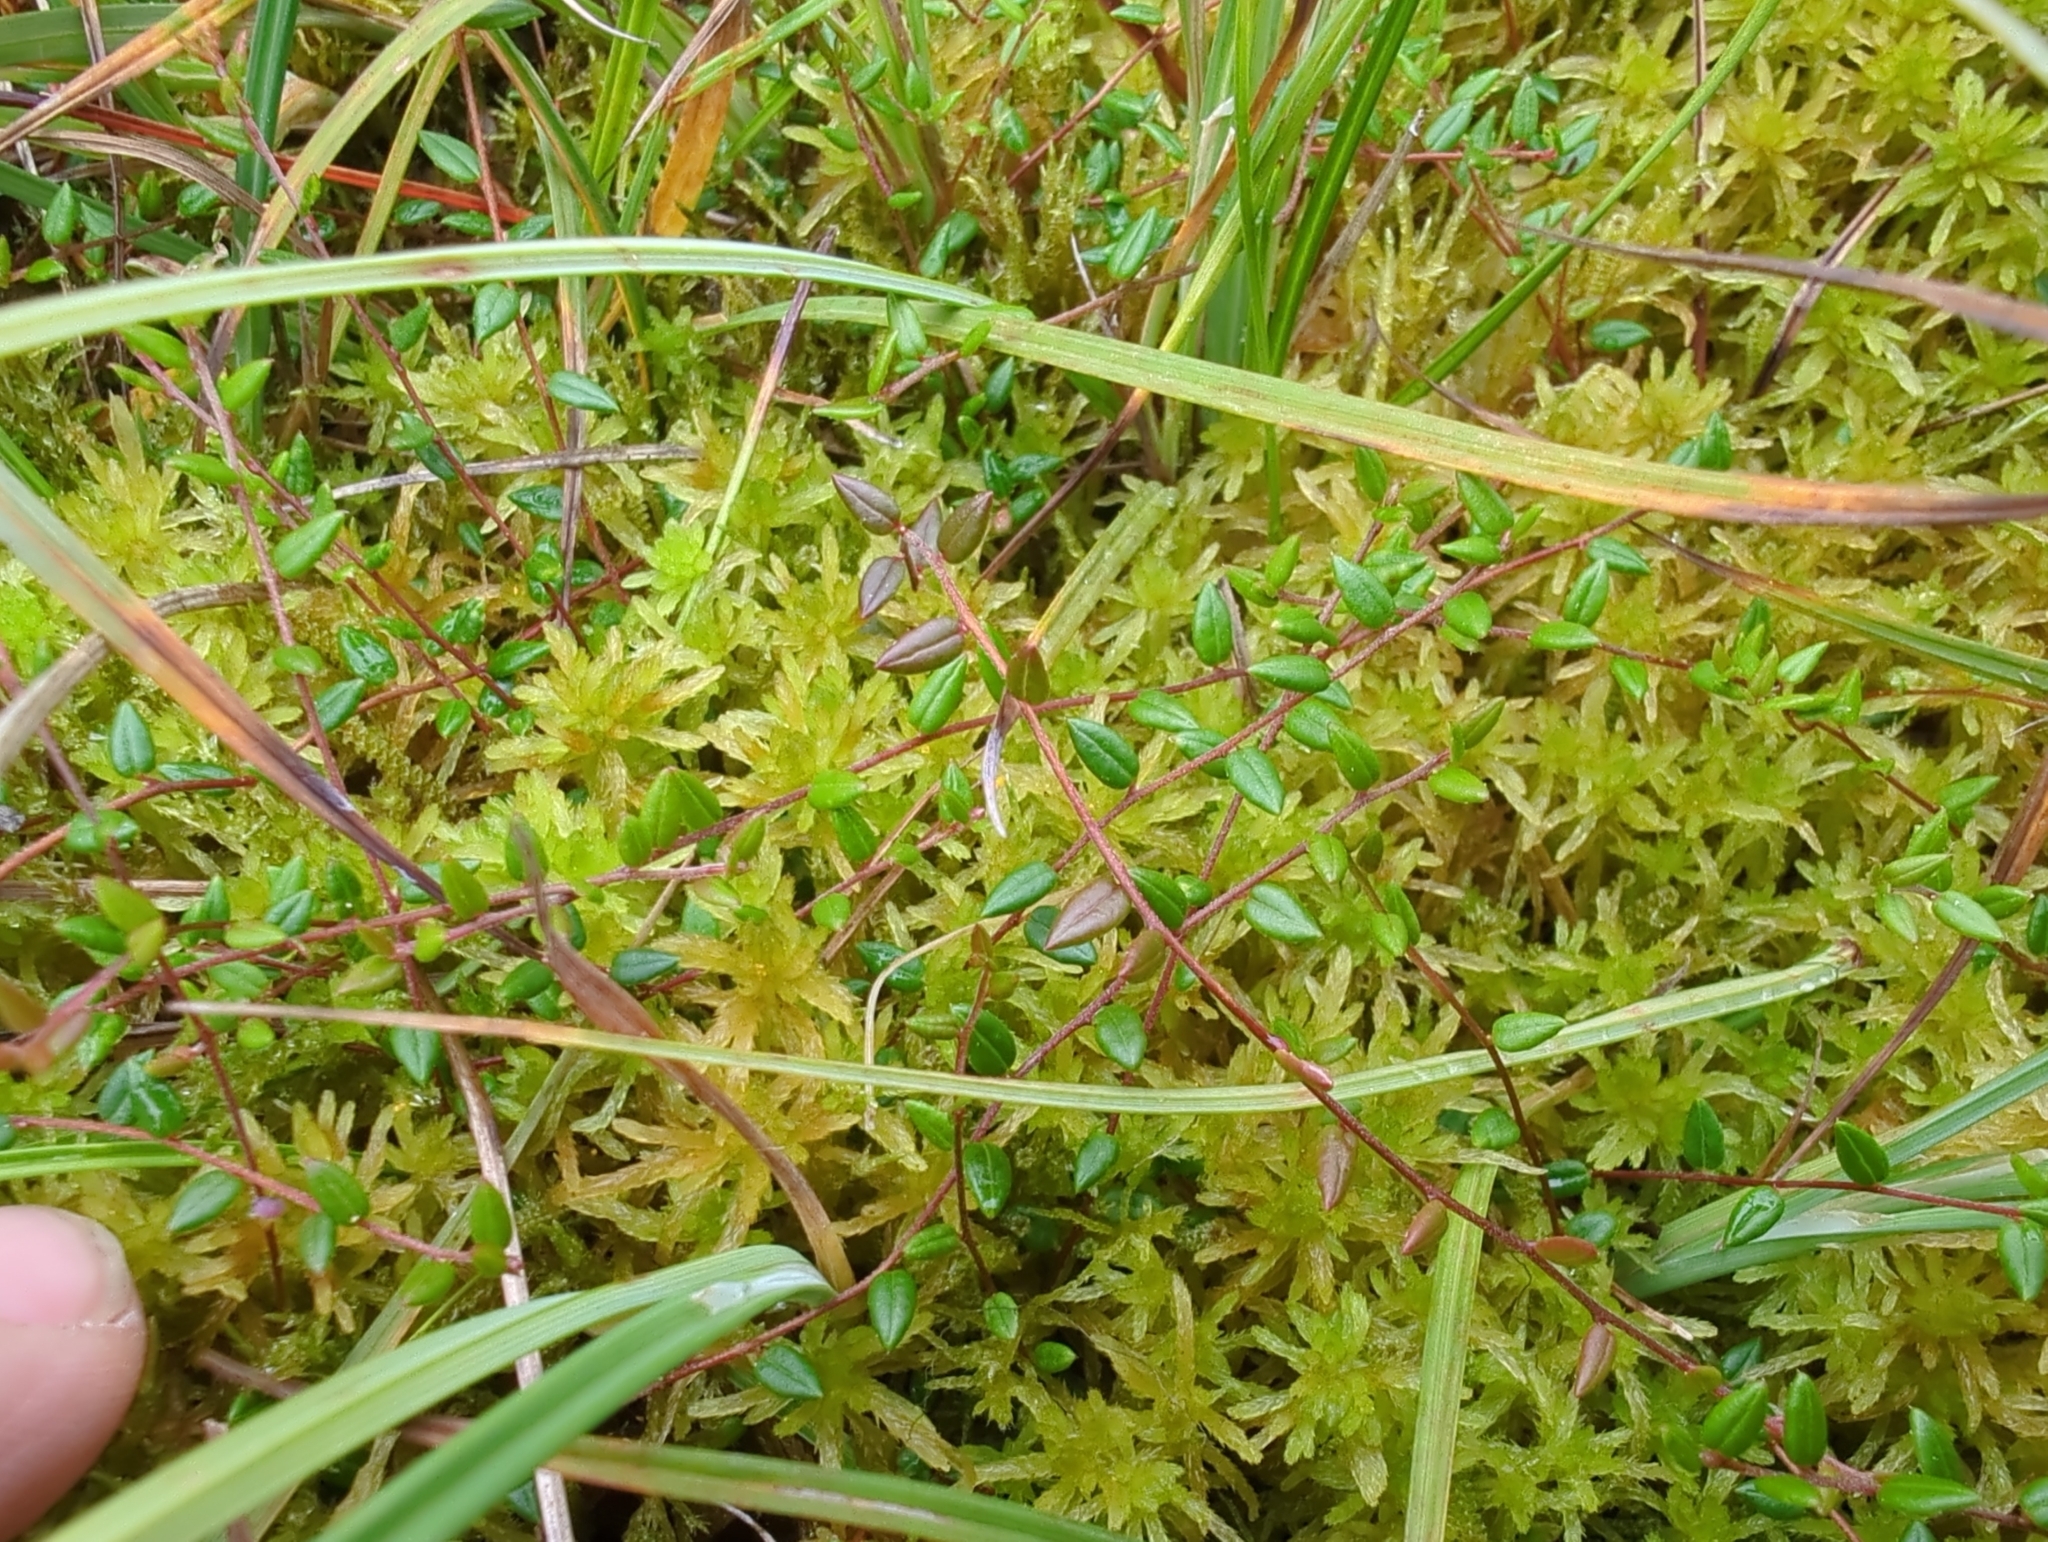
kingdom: Plantae
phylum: Tracheophyta
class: Magnoliopsida
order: Ericales
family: Ericaceae
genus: Vaccinium
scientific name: Vaccinium oxycoccos
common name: Cranberry
